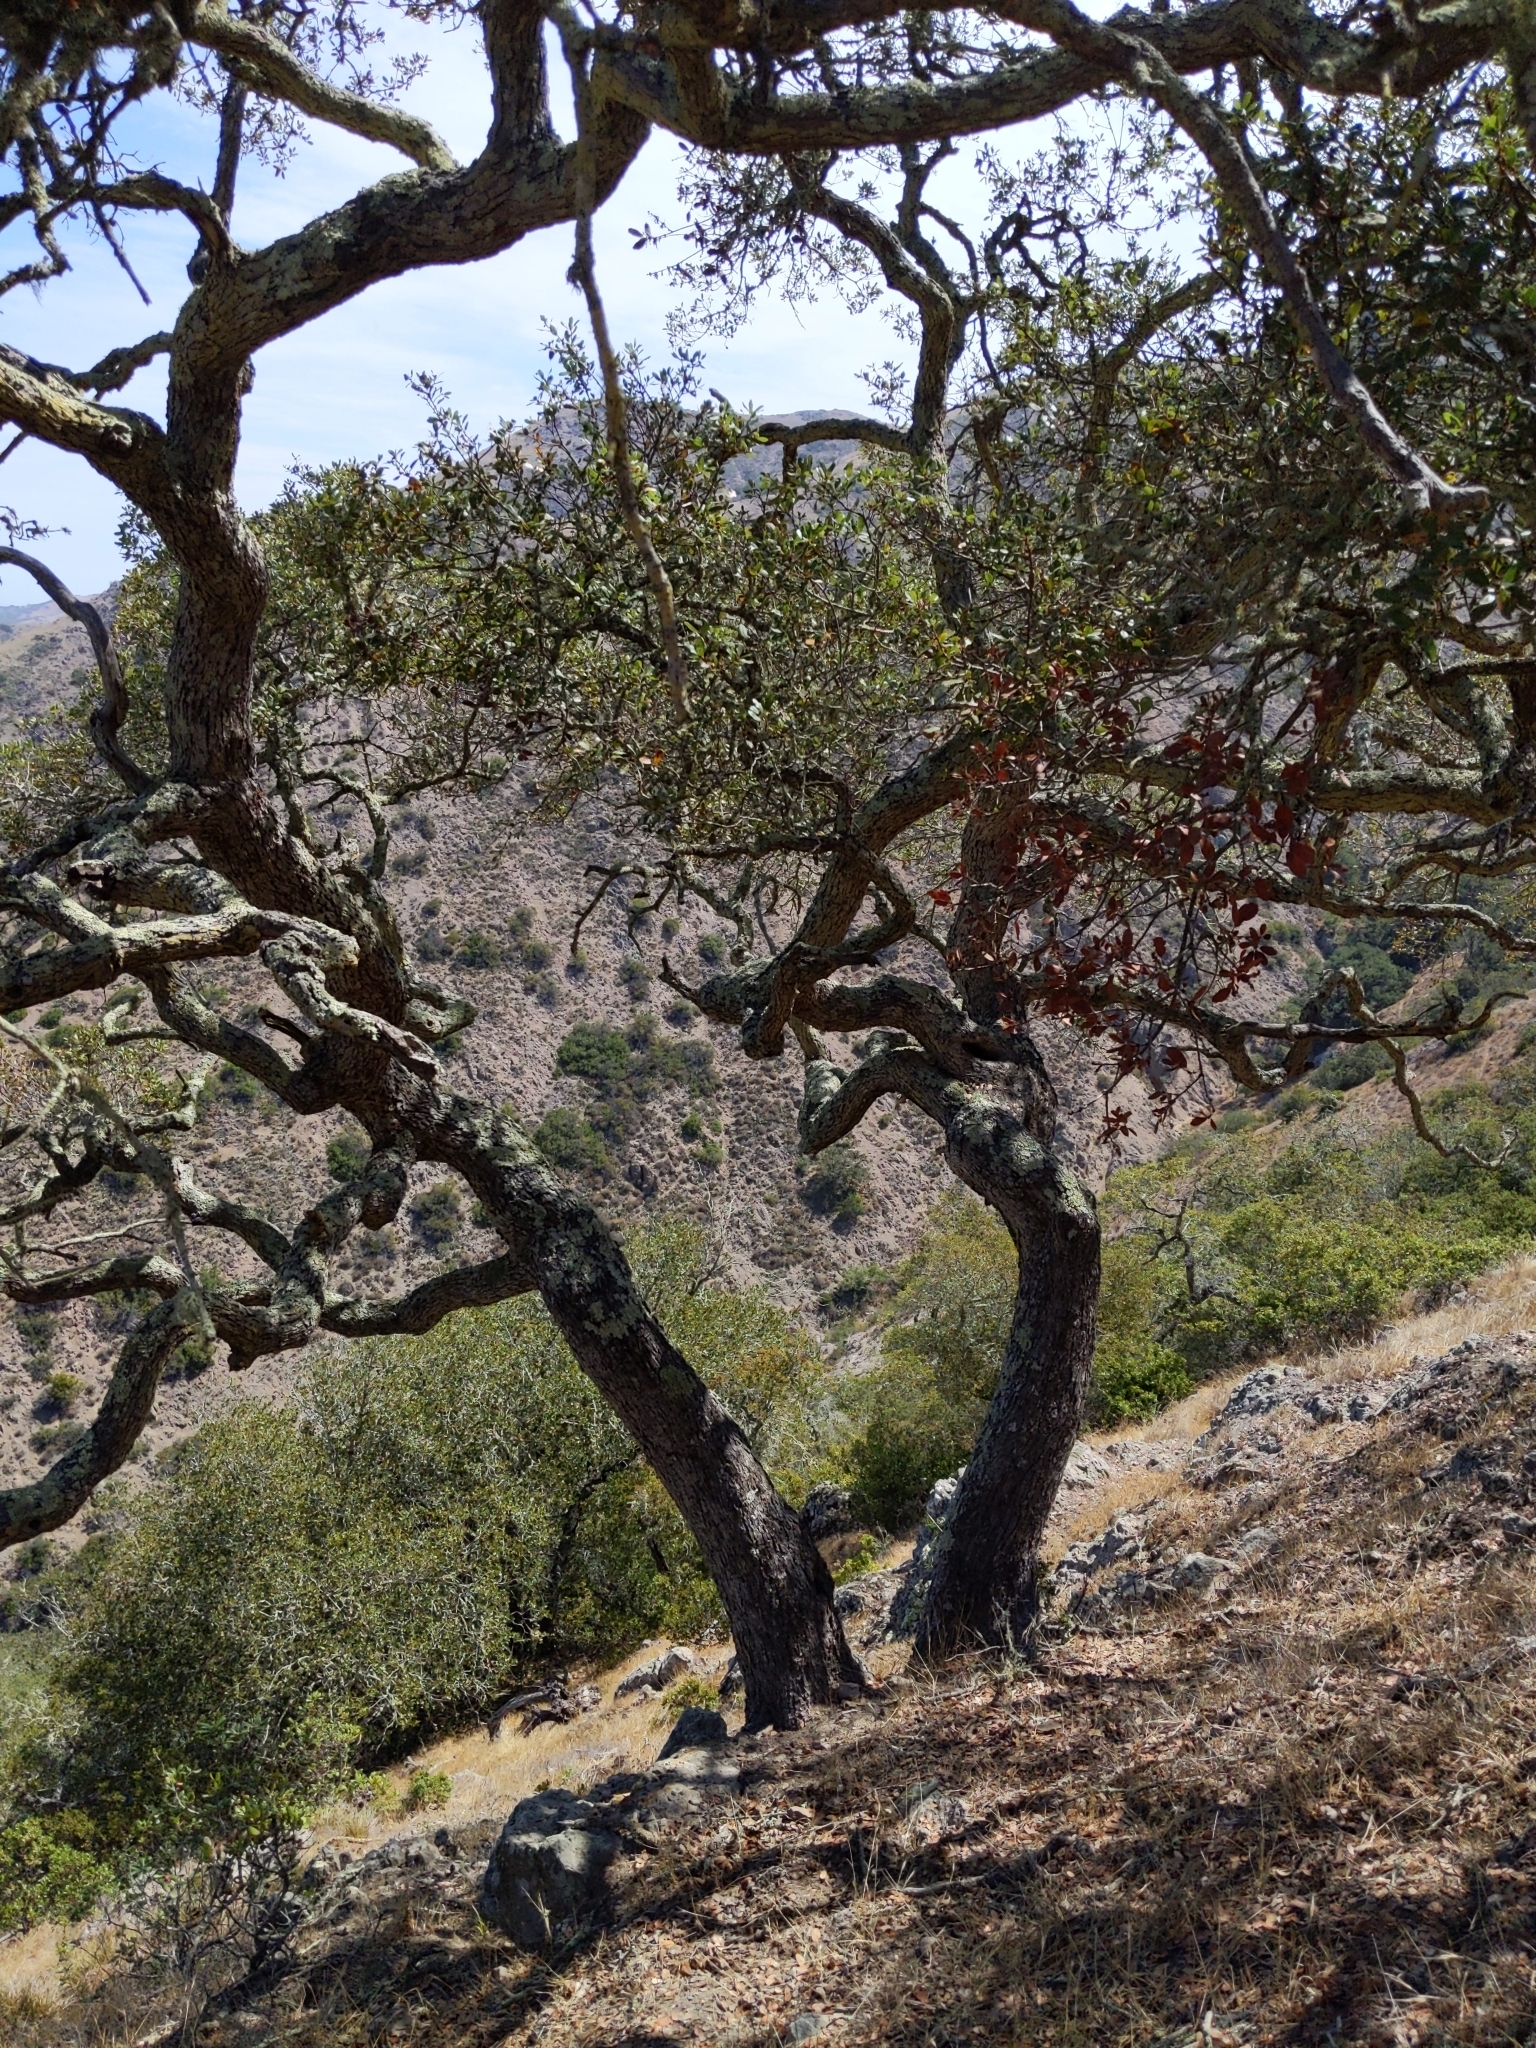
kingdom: Plantae
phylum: Tracheophyta
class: Magnoliopsida
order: Fagales
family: Fagaceae
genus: Quercus
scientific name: Quercus pacifica
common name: Channel island scrub oak
